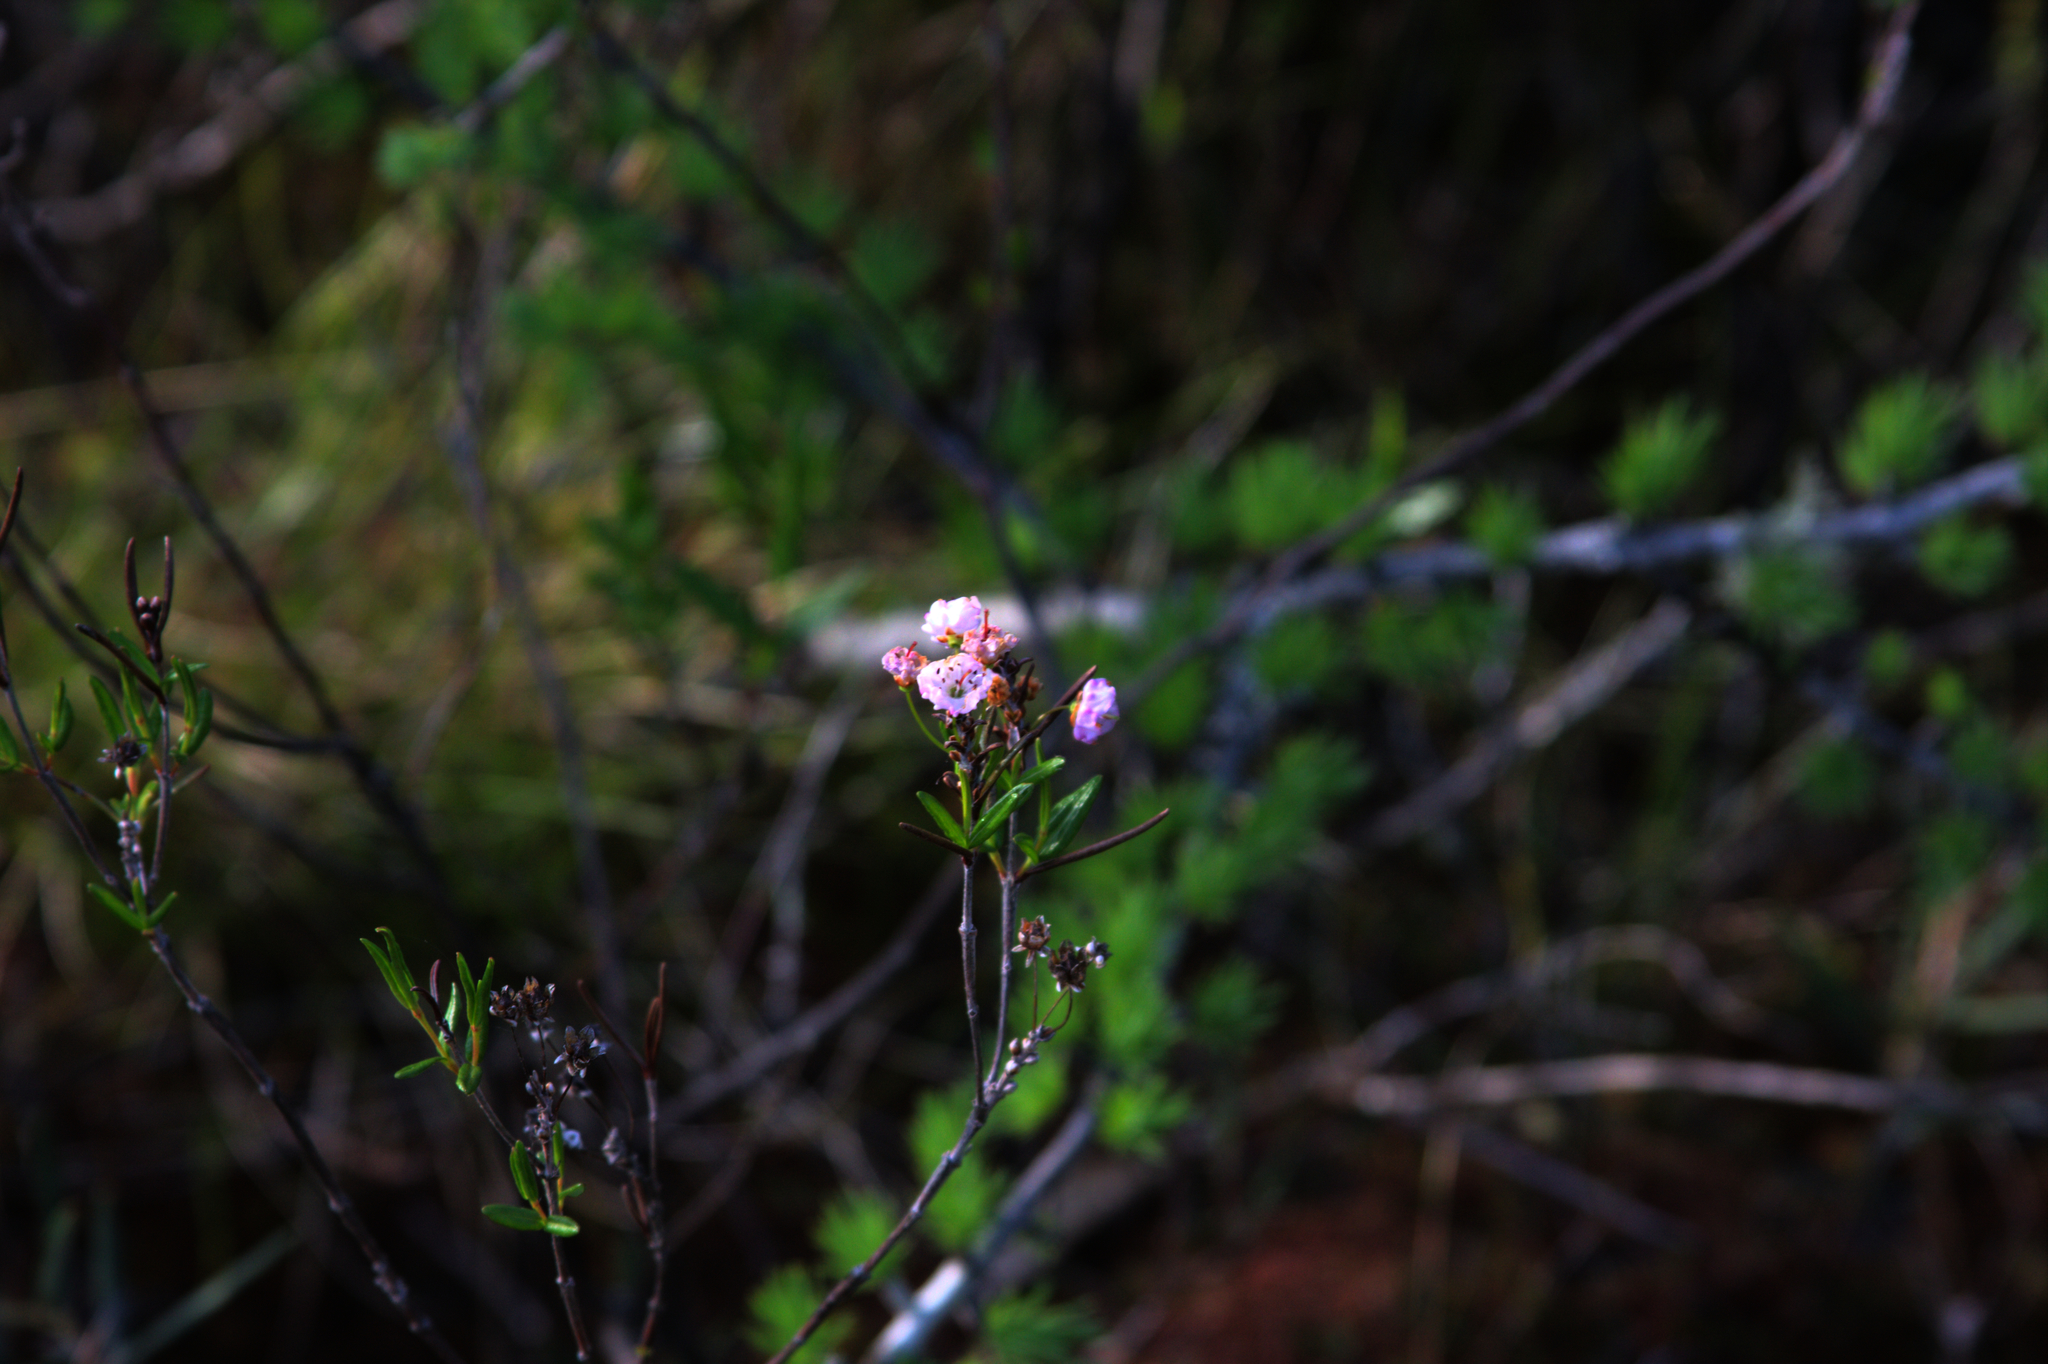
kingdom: Plantae
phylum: Tracheophyta
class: Magnoliopsida
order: Ericales
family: Ericaceae
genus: Kalmia
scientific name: Kalmia polifolia
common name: Bog-laurel
